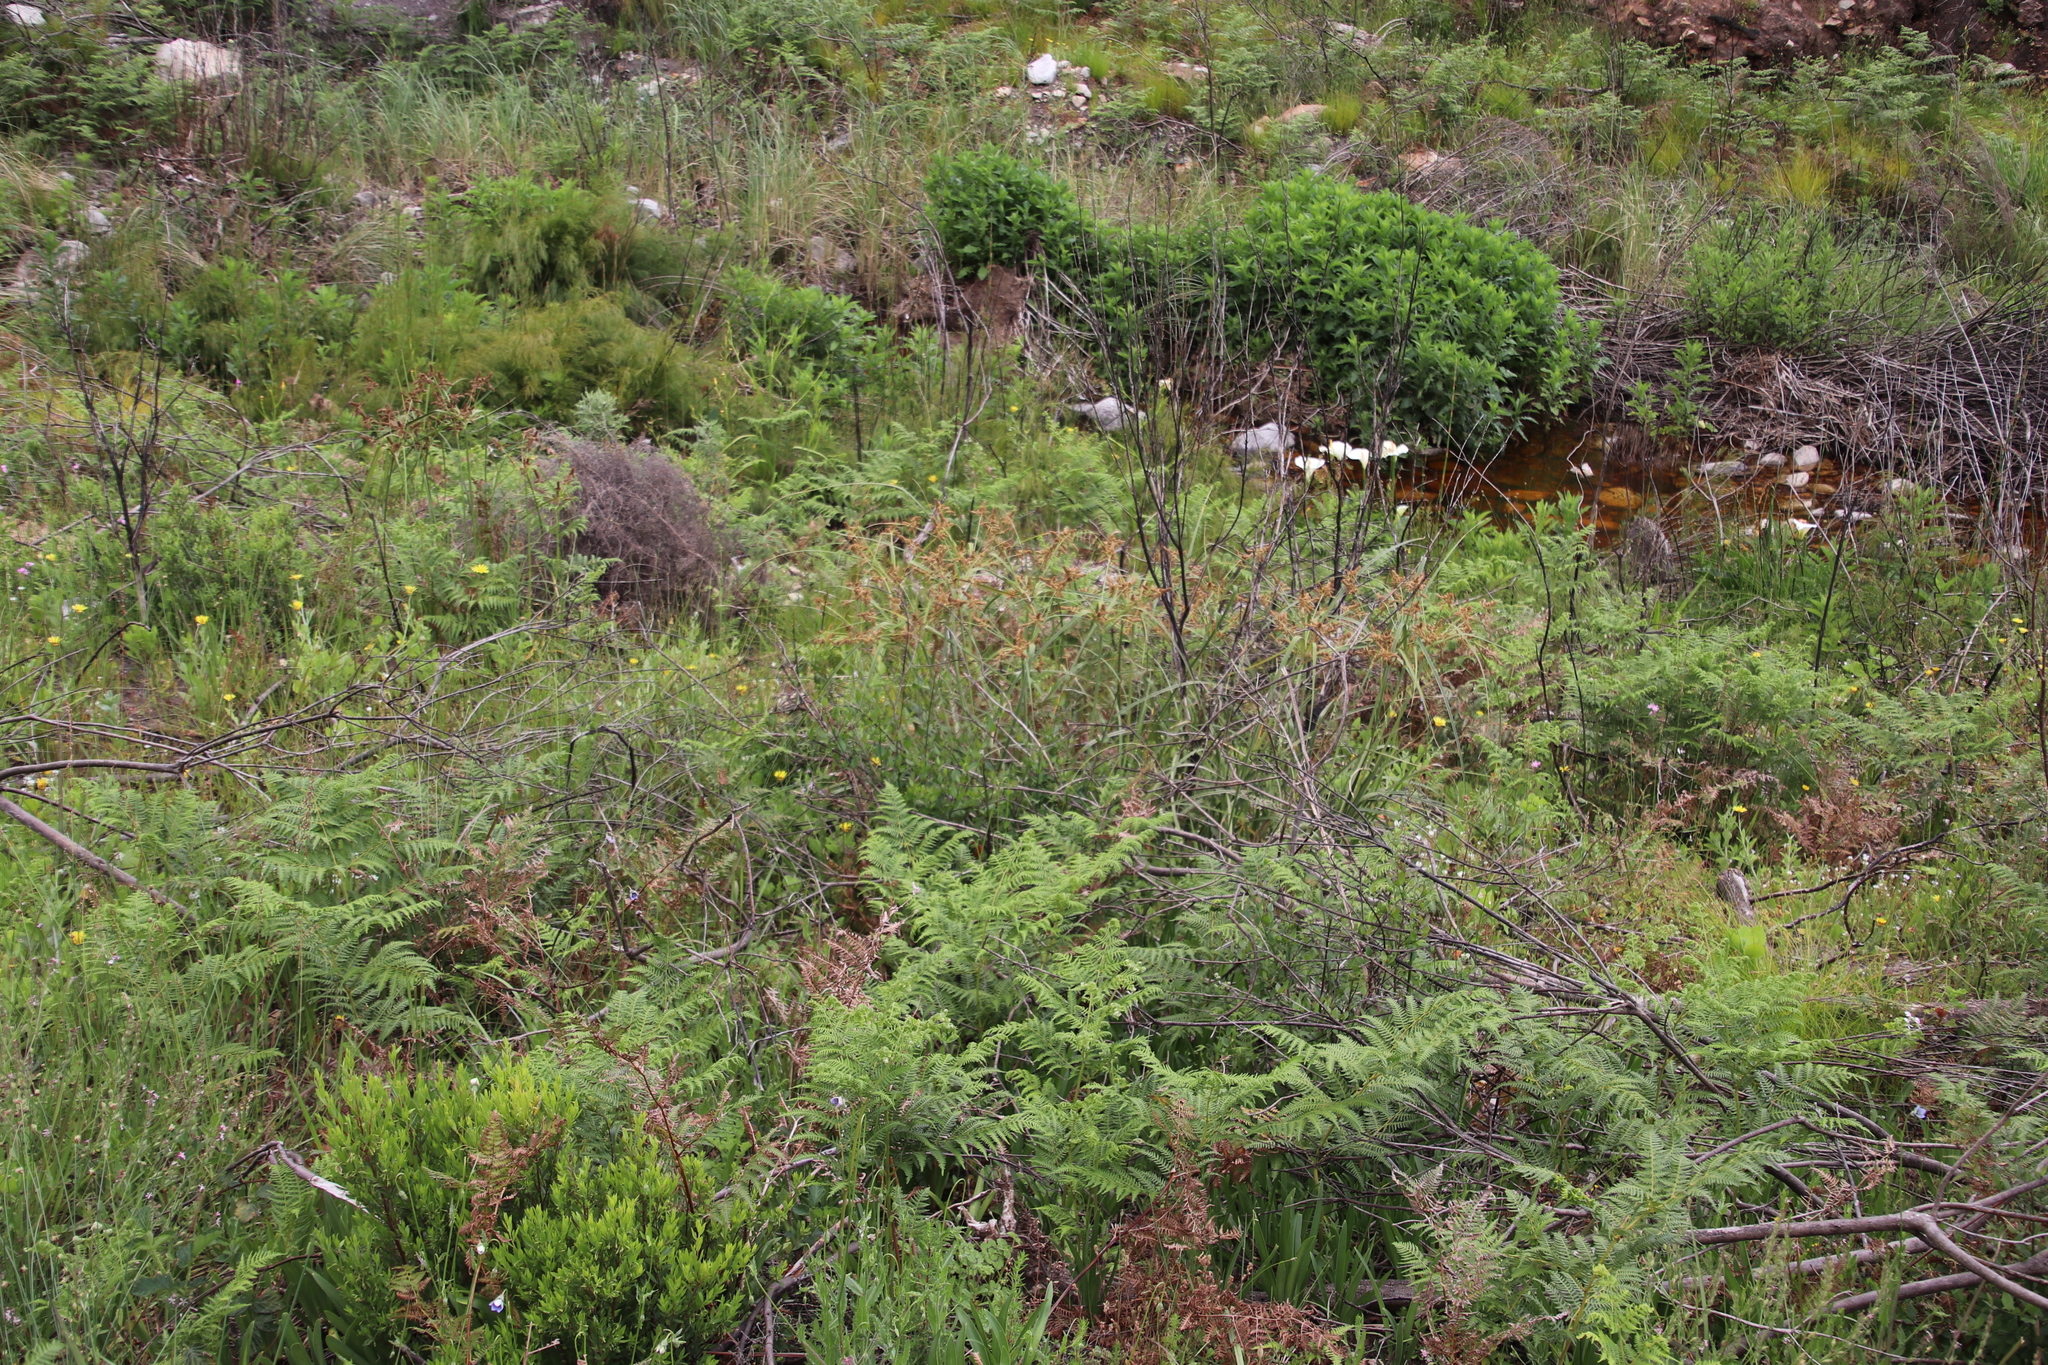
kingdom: Plantae
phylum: Tracheophyta
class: Liliopsida
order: Poales
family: Cyperaceae
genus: Cyperus
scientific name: Cyperus thunbergii
